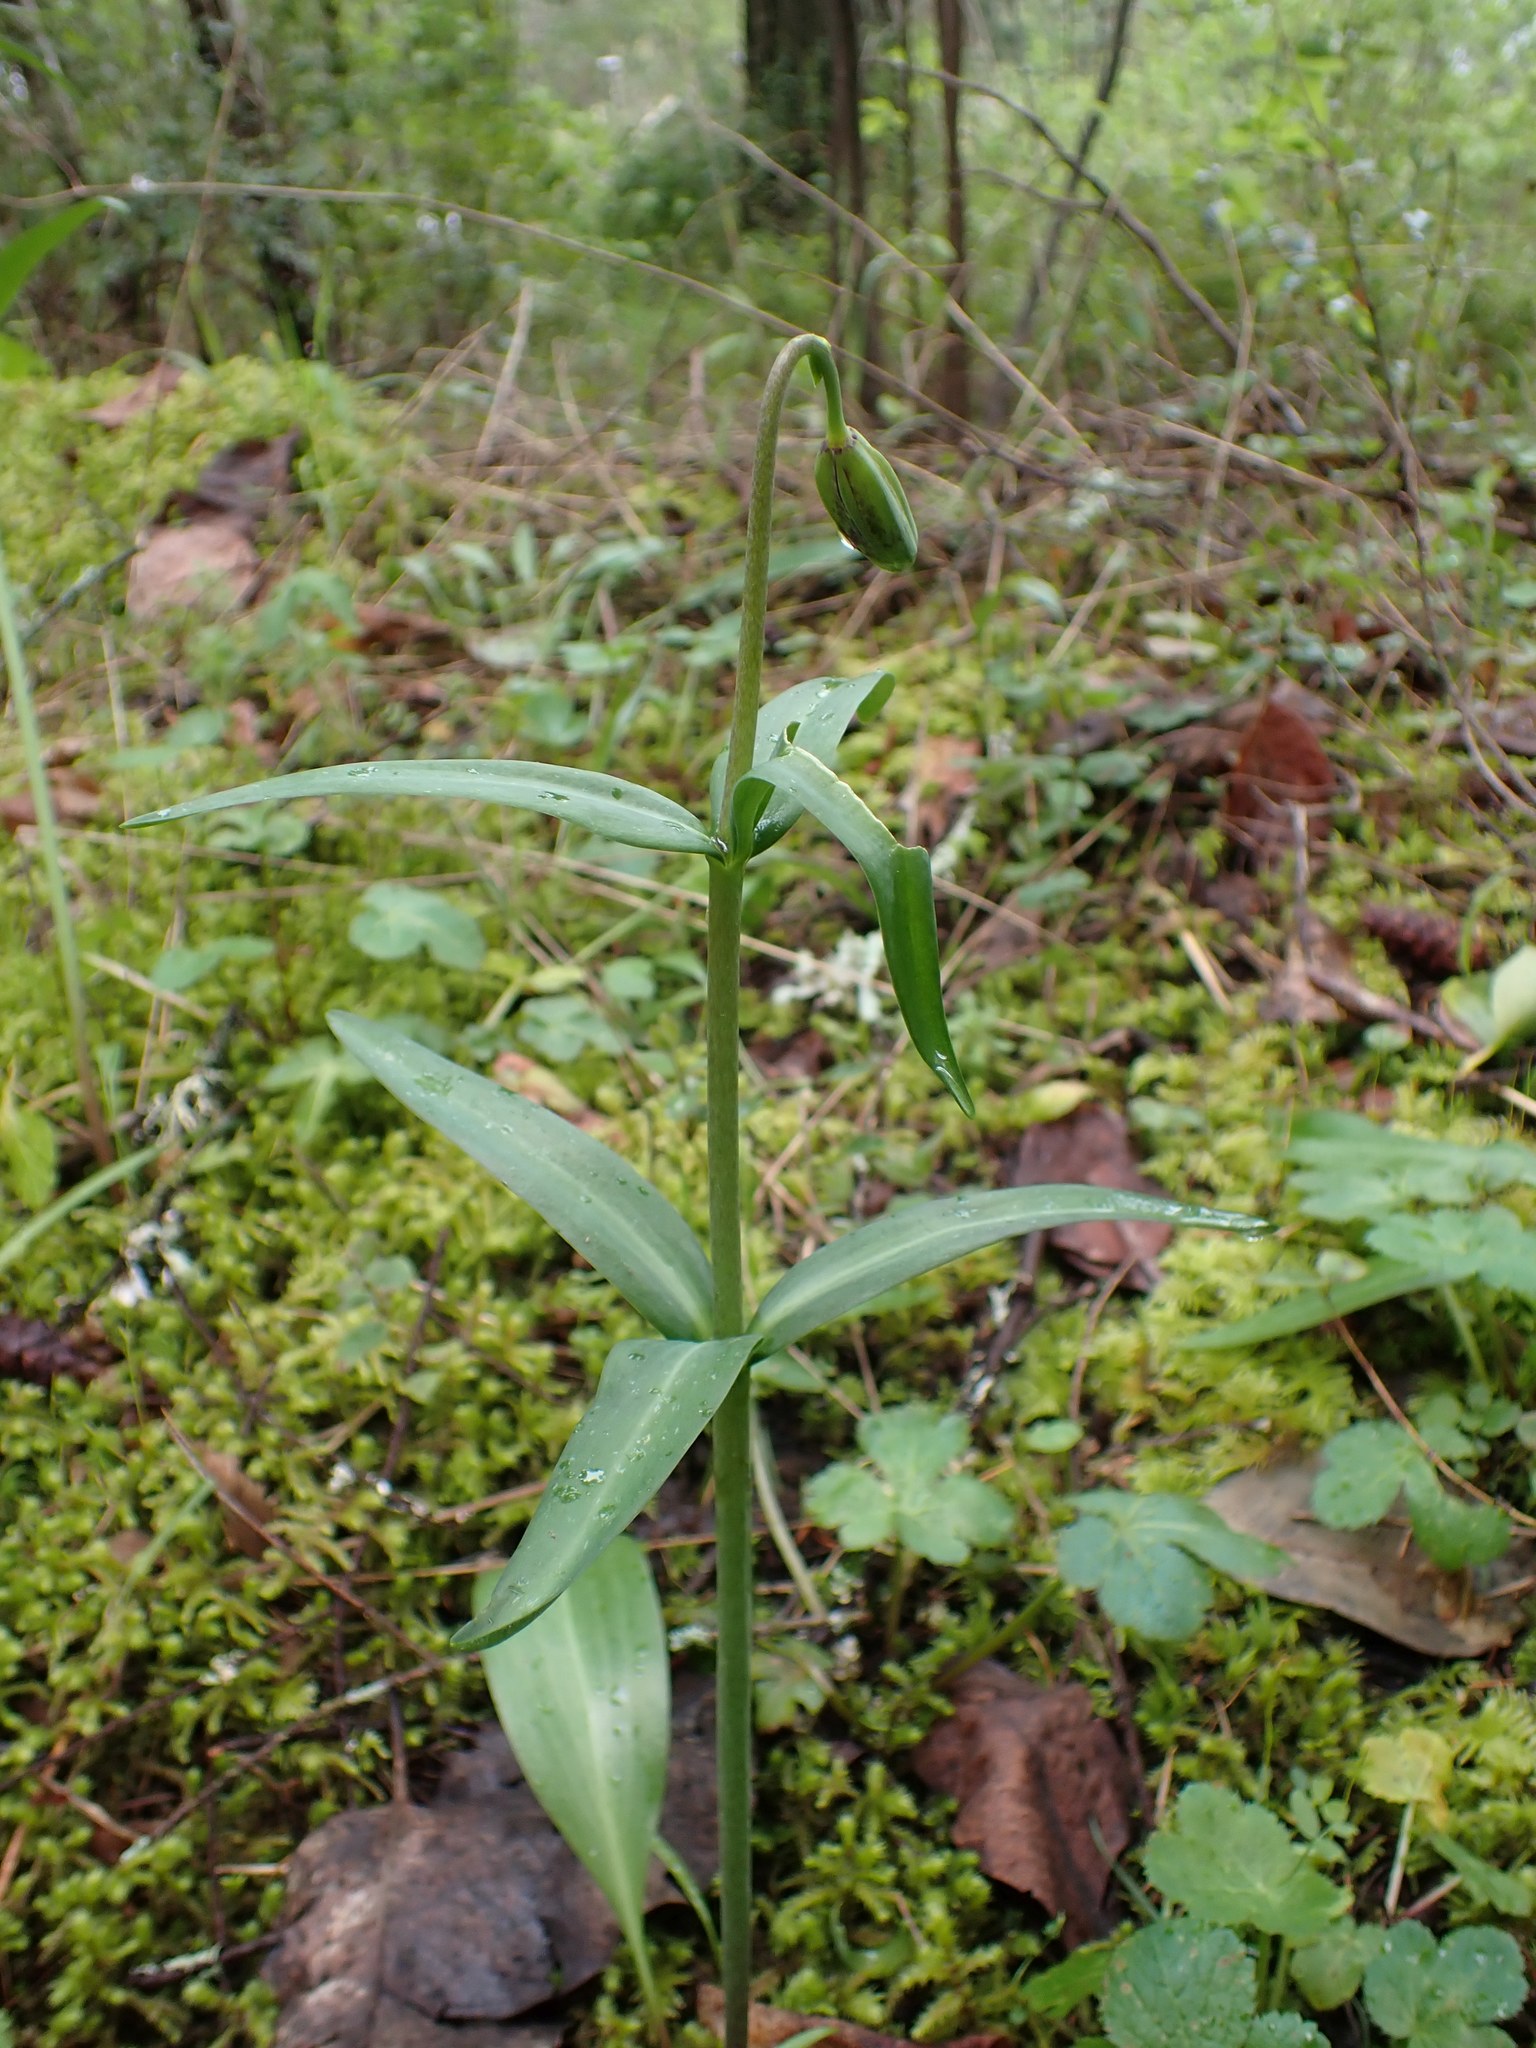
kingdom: Plantae
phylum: Tracheophyta
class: Liliopsida
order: Liliales
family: Liliaceae
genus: Fritillaria
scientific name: Fritillaria affinis
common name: Ojai fritillary
